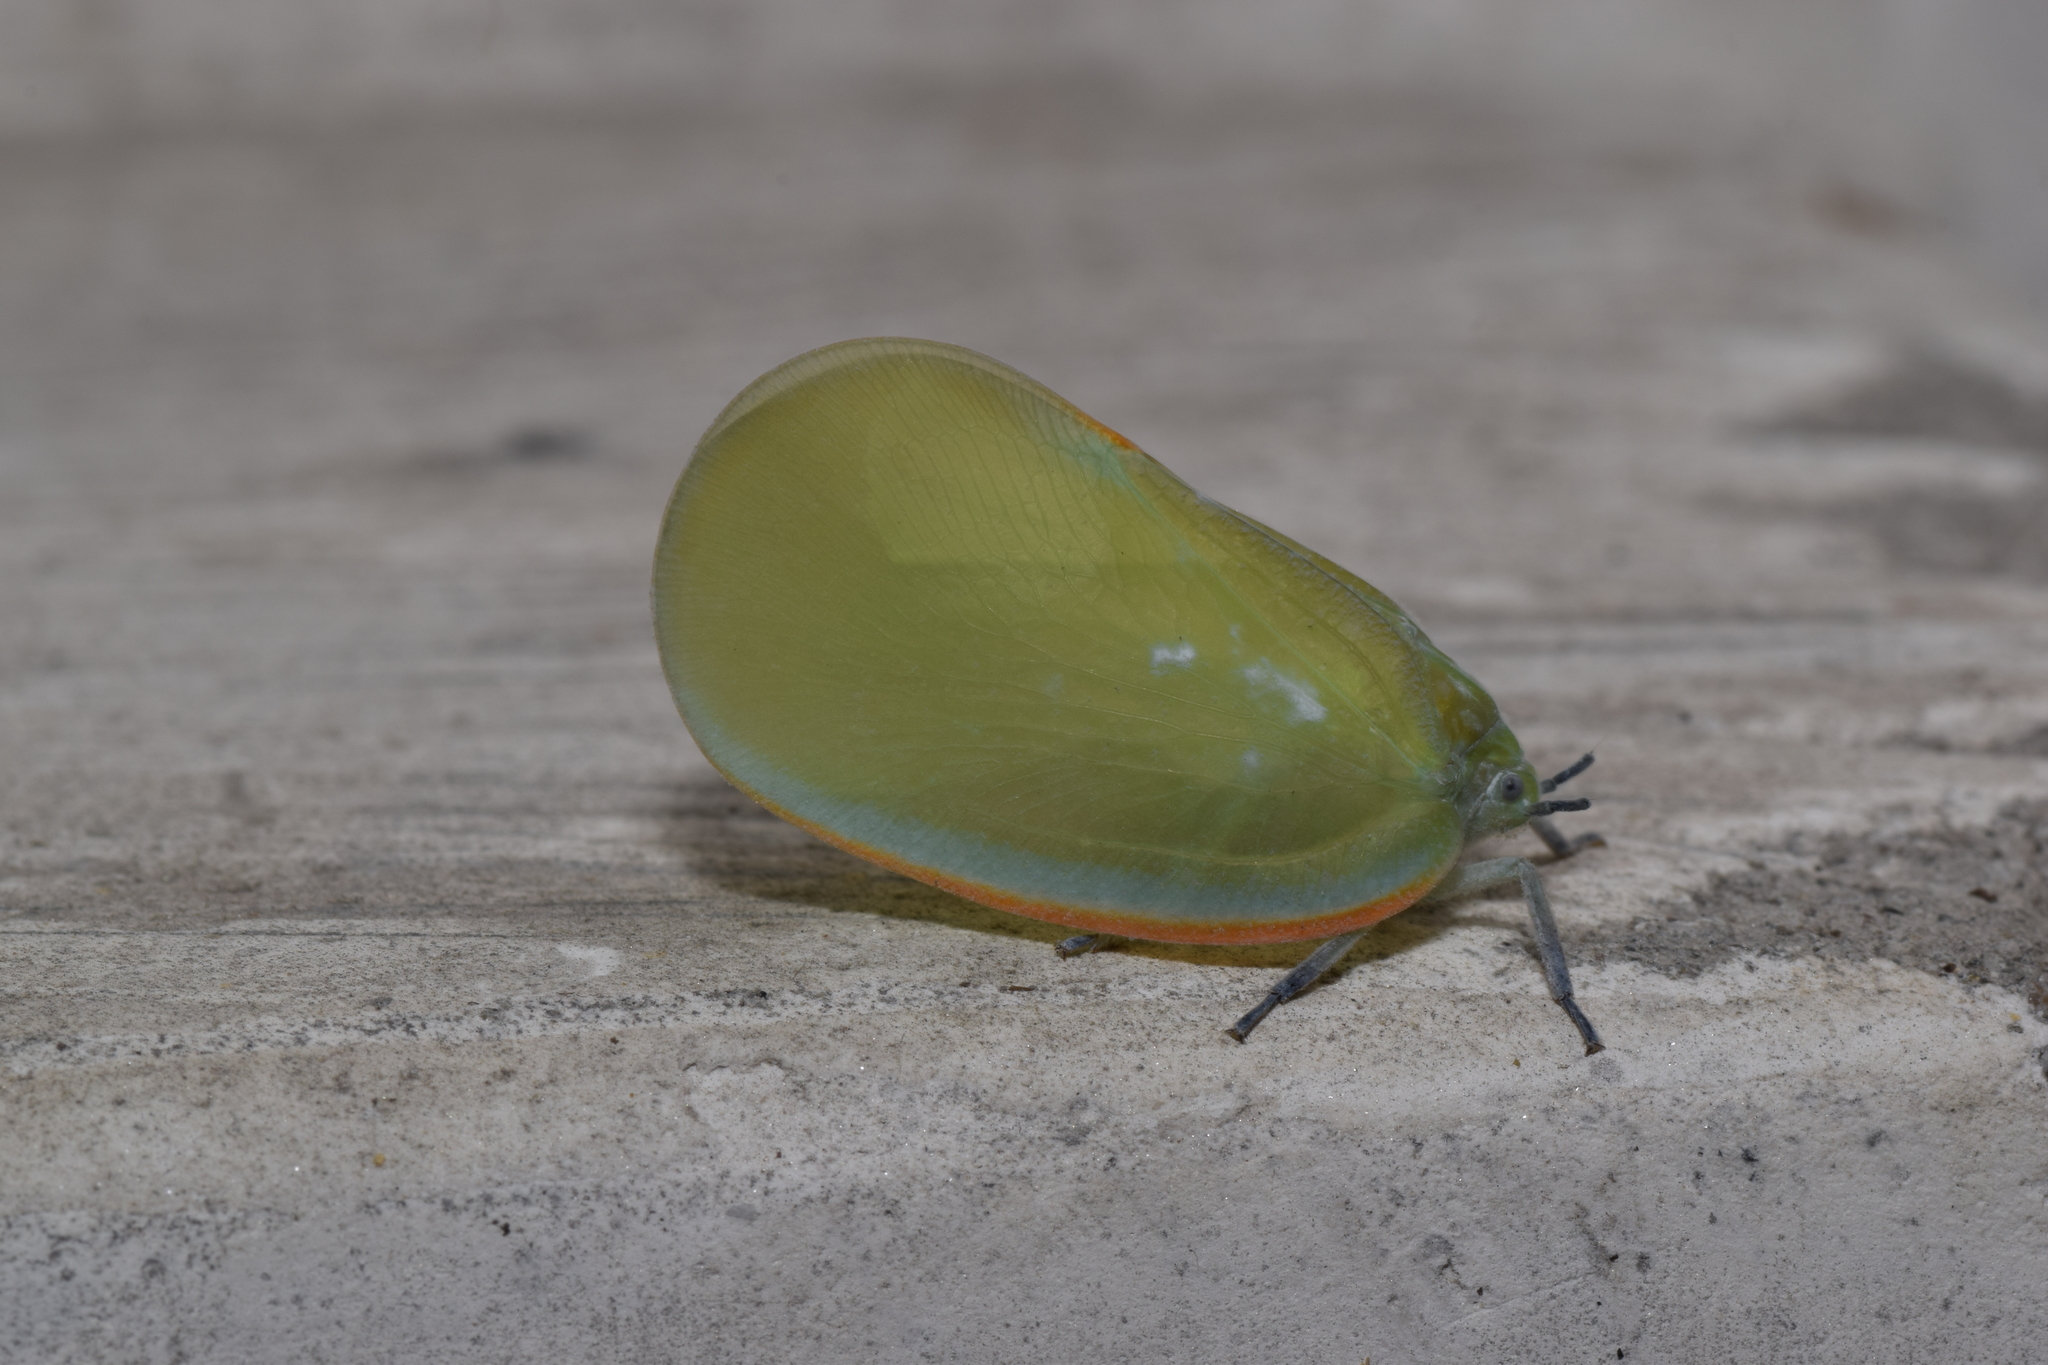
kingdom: Animalia
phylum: Arthropoda
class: Insecta
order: Hemiptera
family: Flatidae
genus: Flatida
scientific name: Flatida marginella
